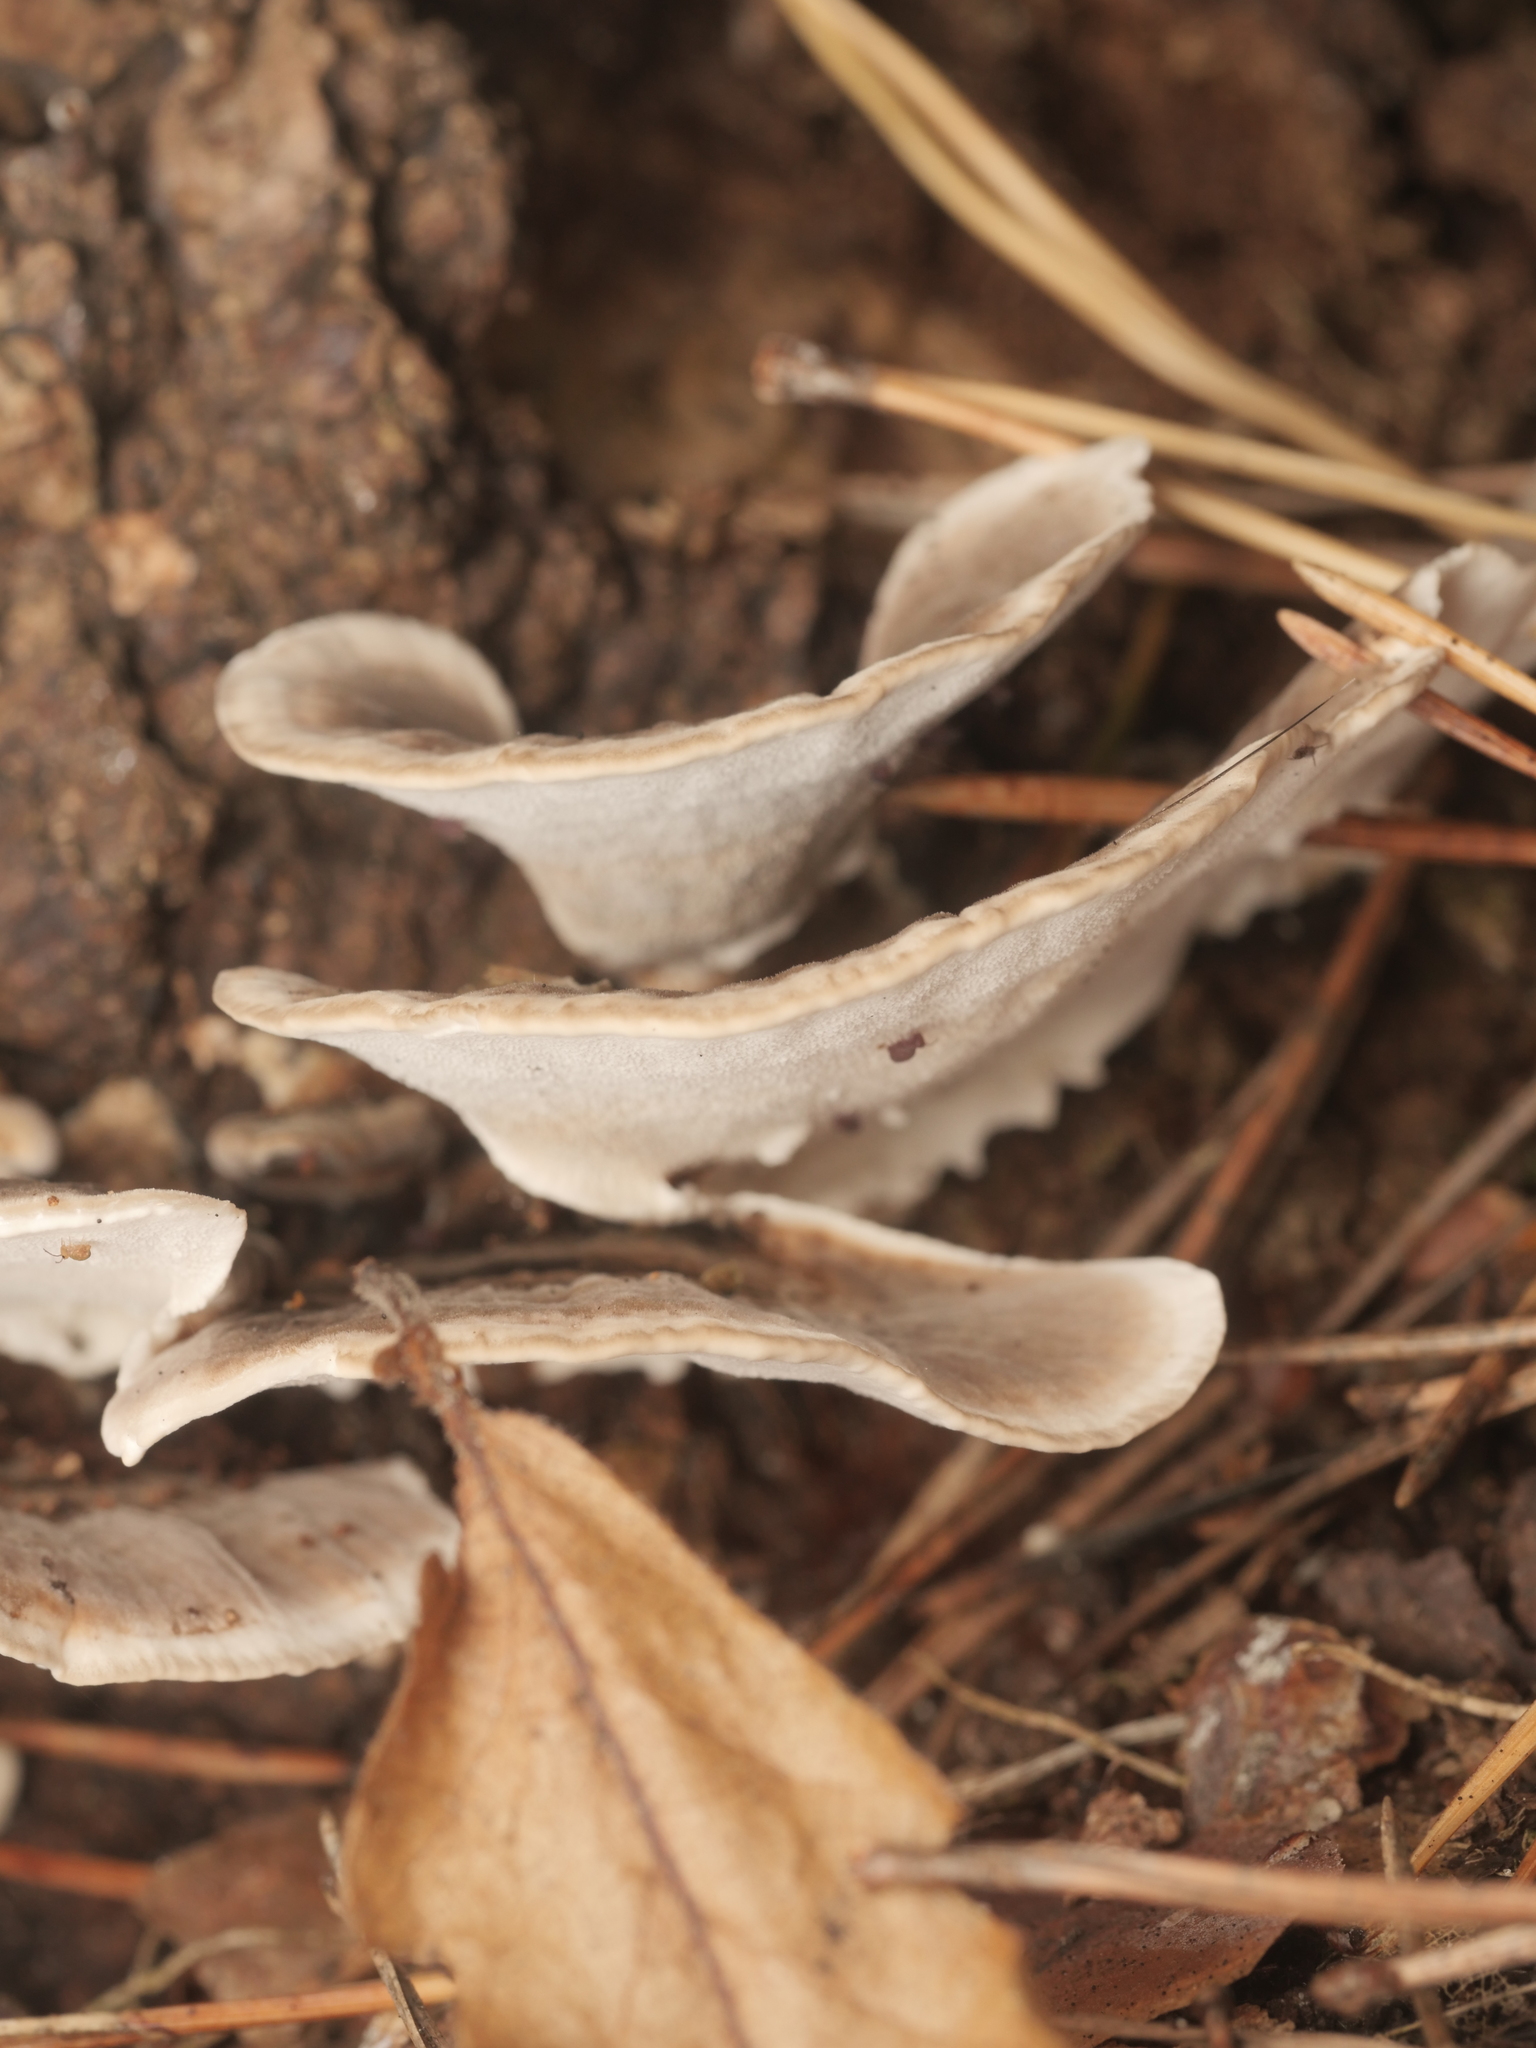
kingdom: Fungi
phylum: Basidiomycota
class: Agaricomycetes
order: Polyporales
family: Polyporaceae
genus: Trametes
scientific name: Trametes versicolor
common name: Turkeytail
